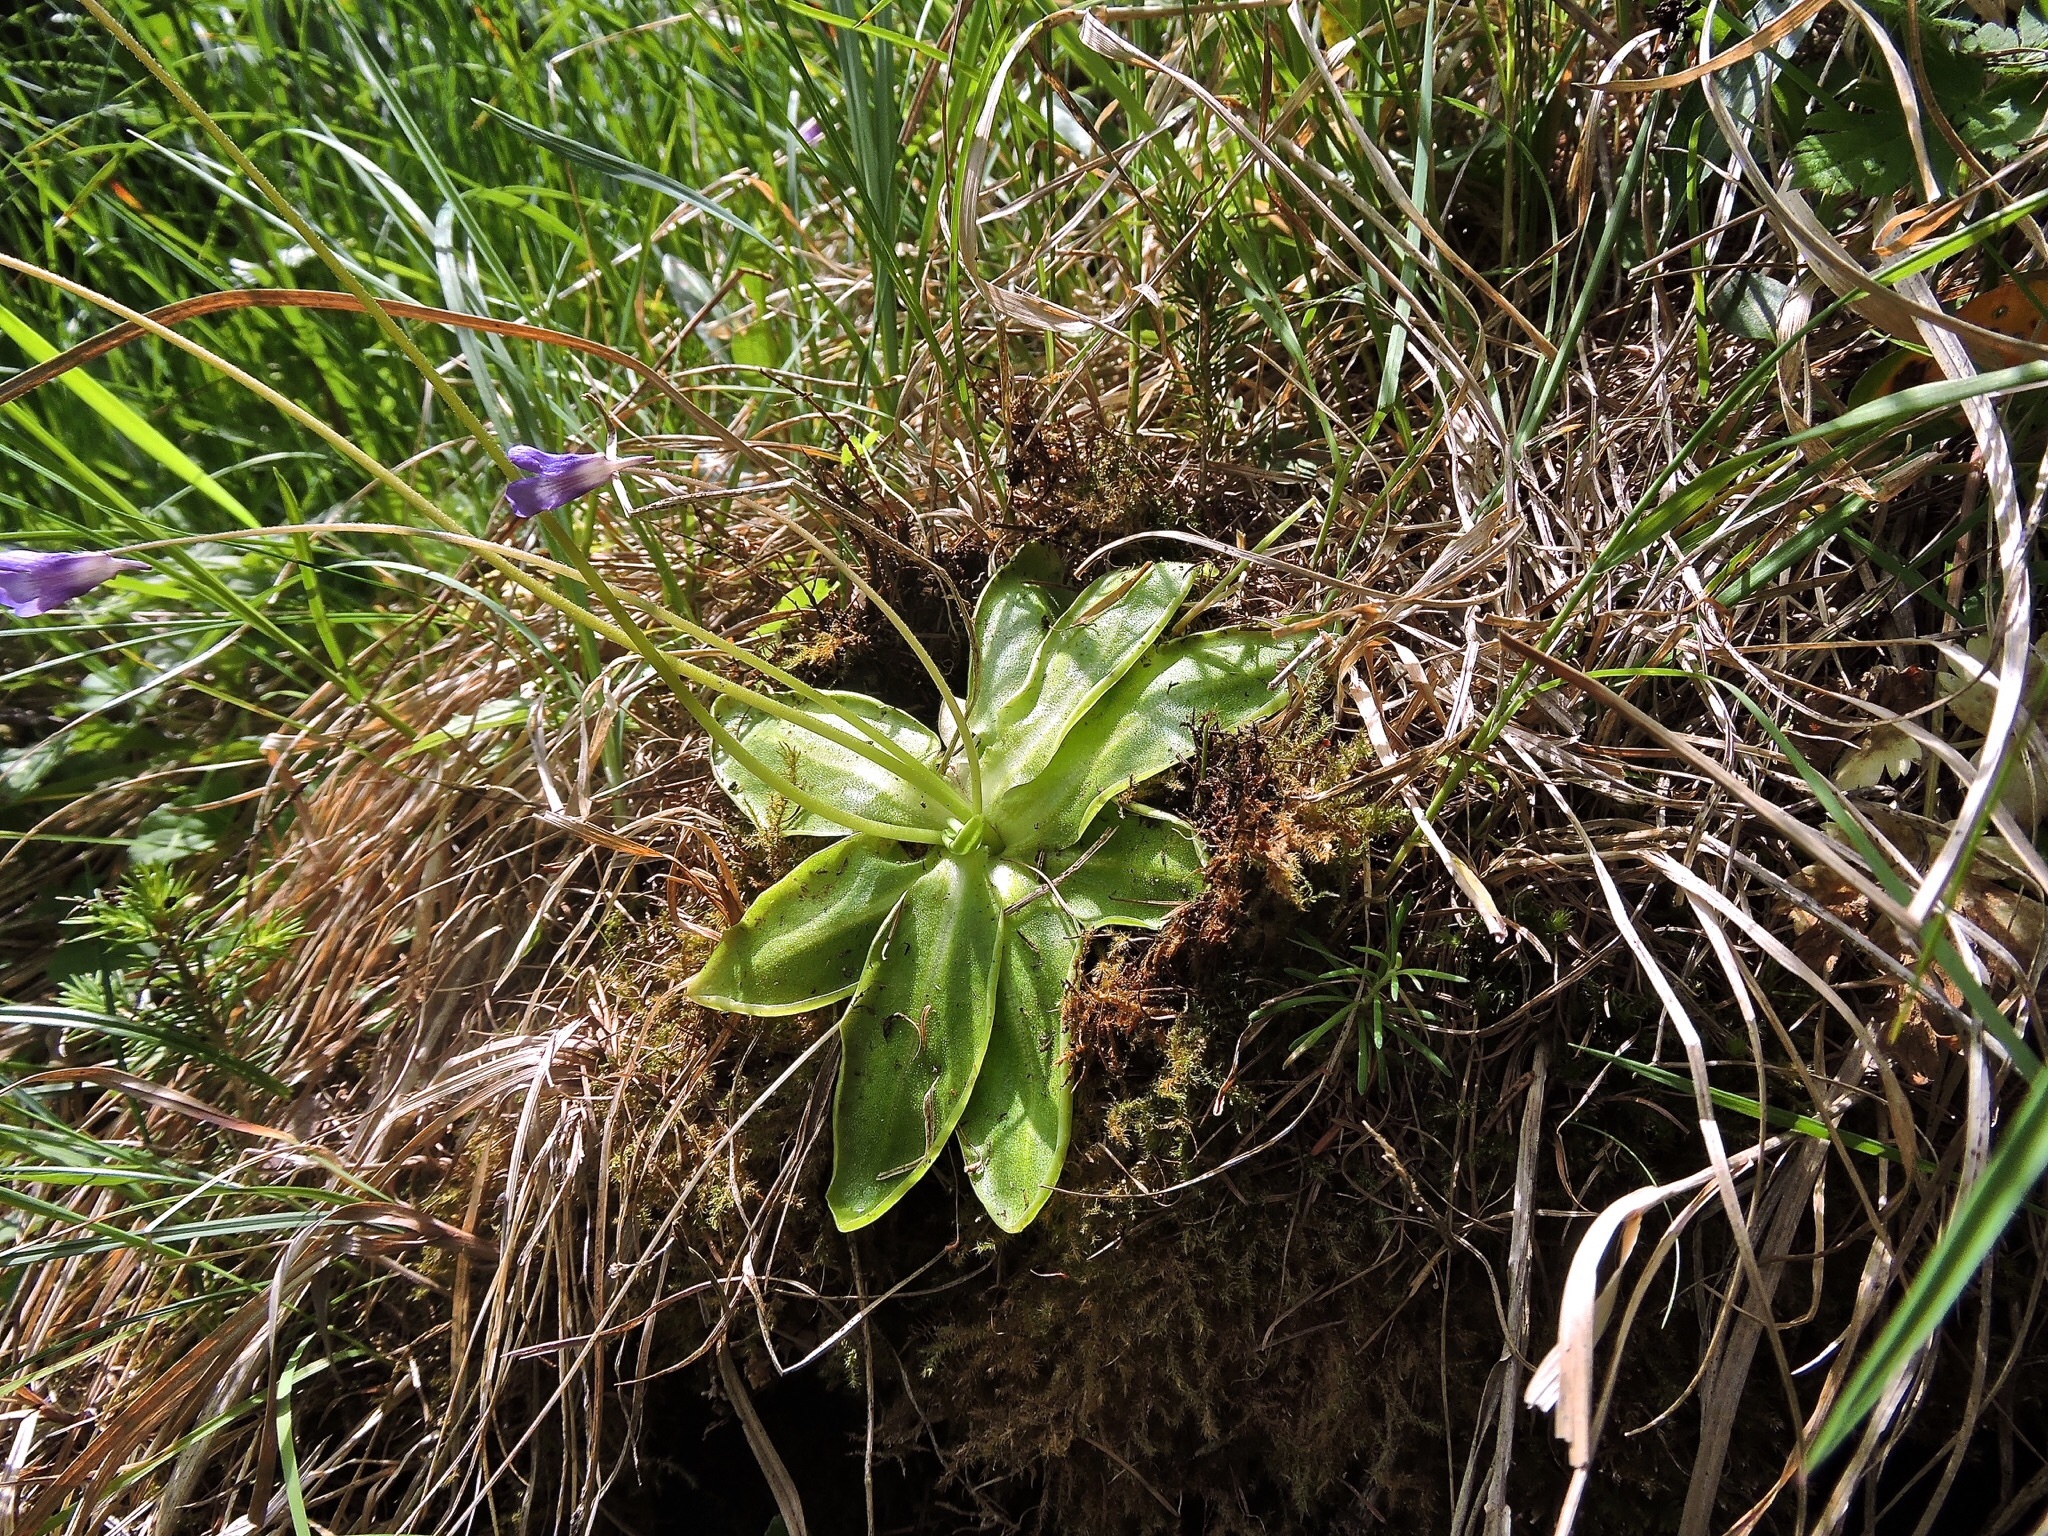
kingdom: Plantae
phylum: Tracheophyta
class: Magnoliopsida
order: Lamiales
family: Lentibulariaceae
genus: Pinguicula
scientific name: Pinguicula leptoceras
